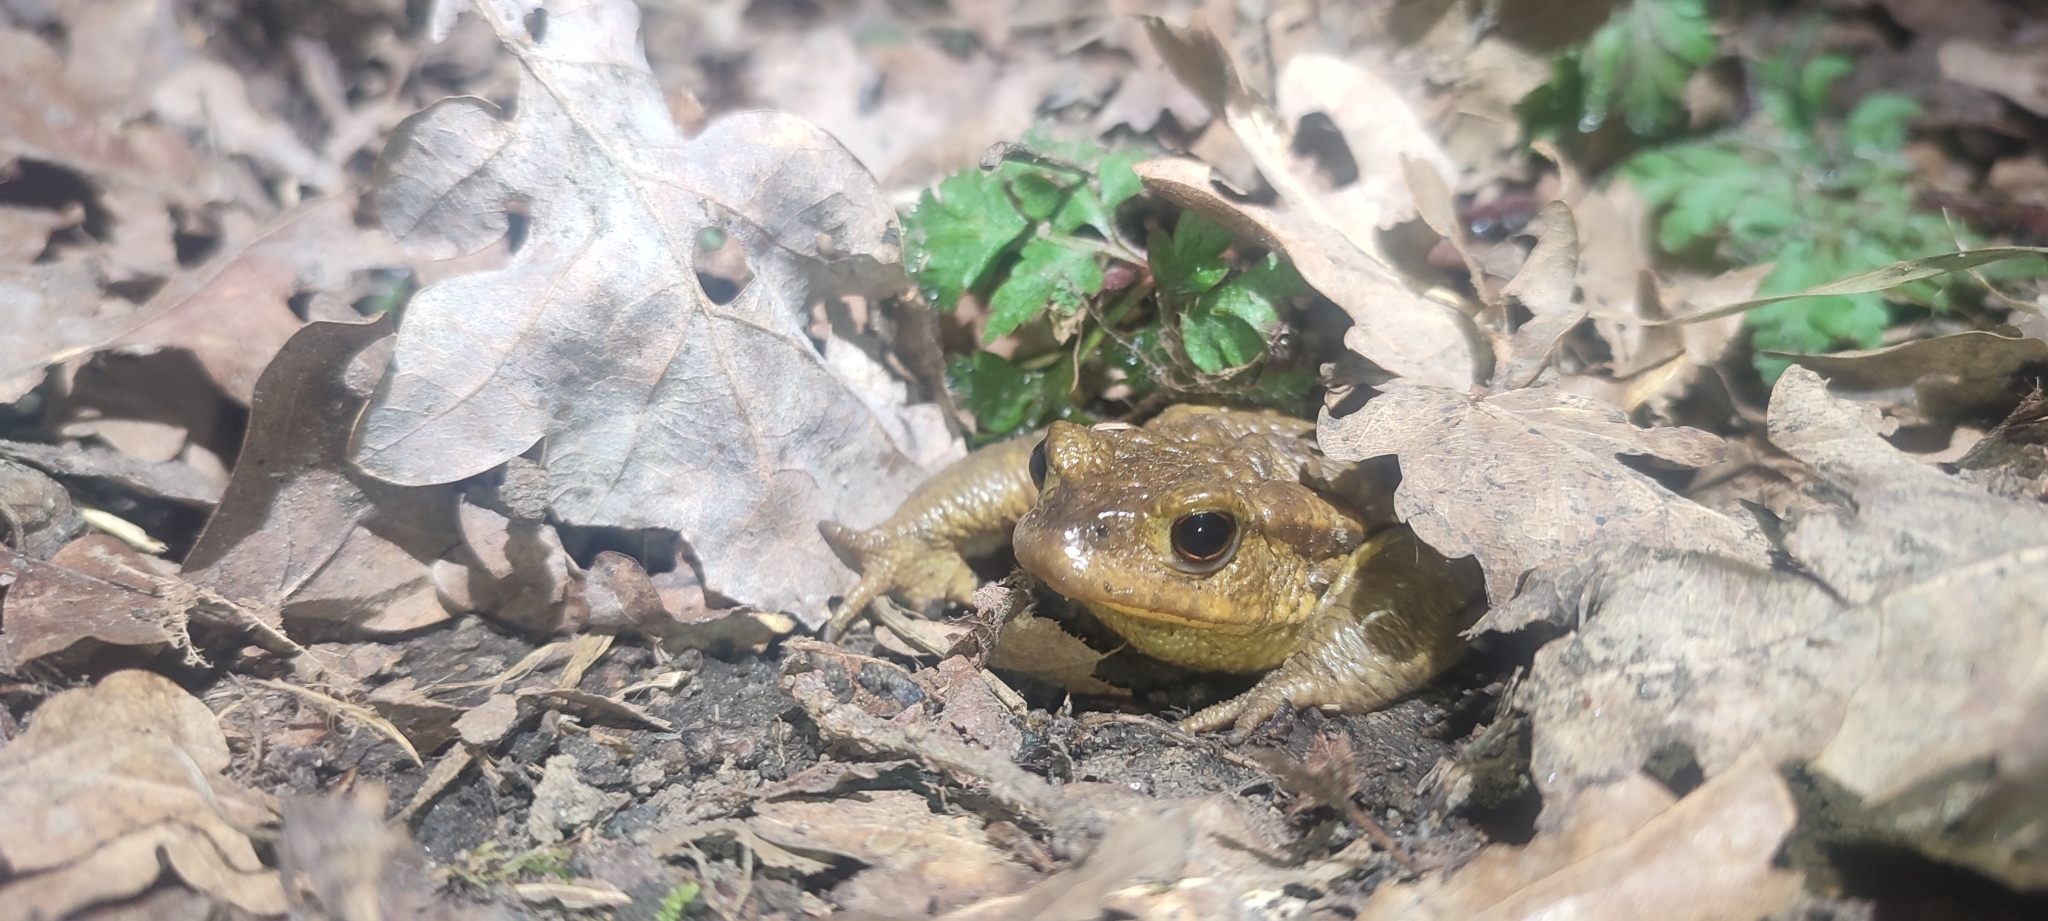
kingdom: Animalia
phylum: Chordata
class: Amphibia
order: Anura
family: Bufonidae
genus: Bufo
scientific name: Bufo spinosus
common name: Western common toad
